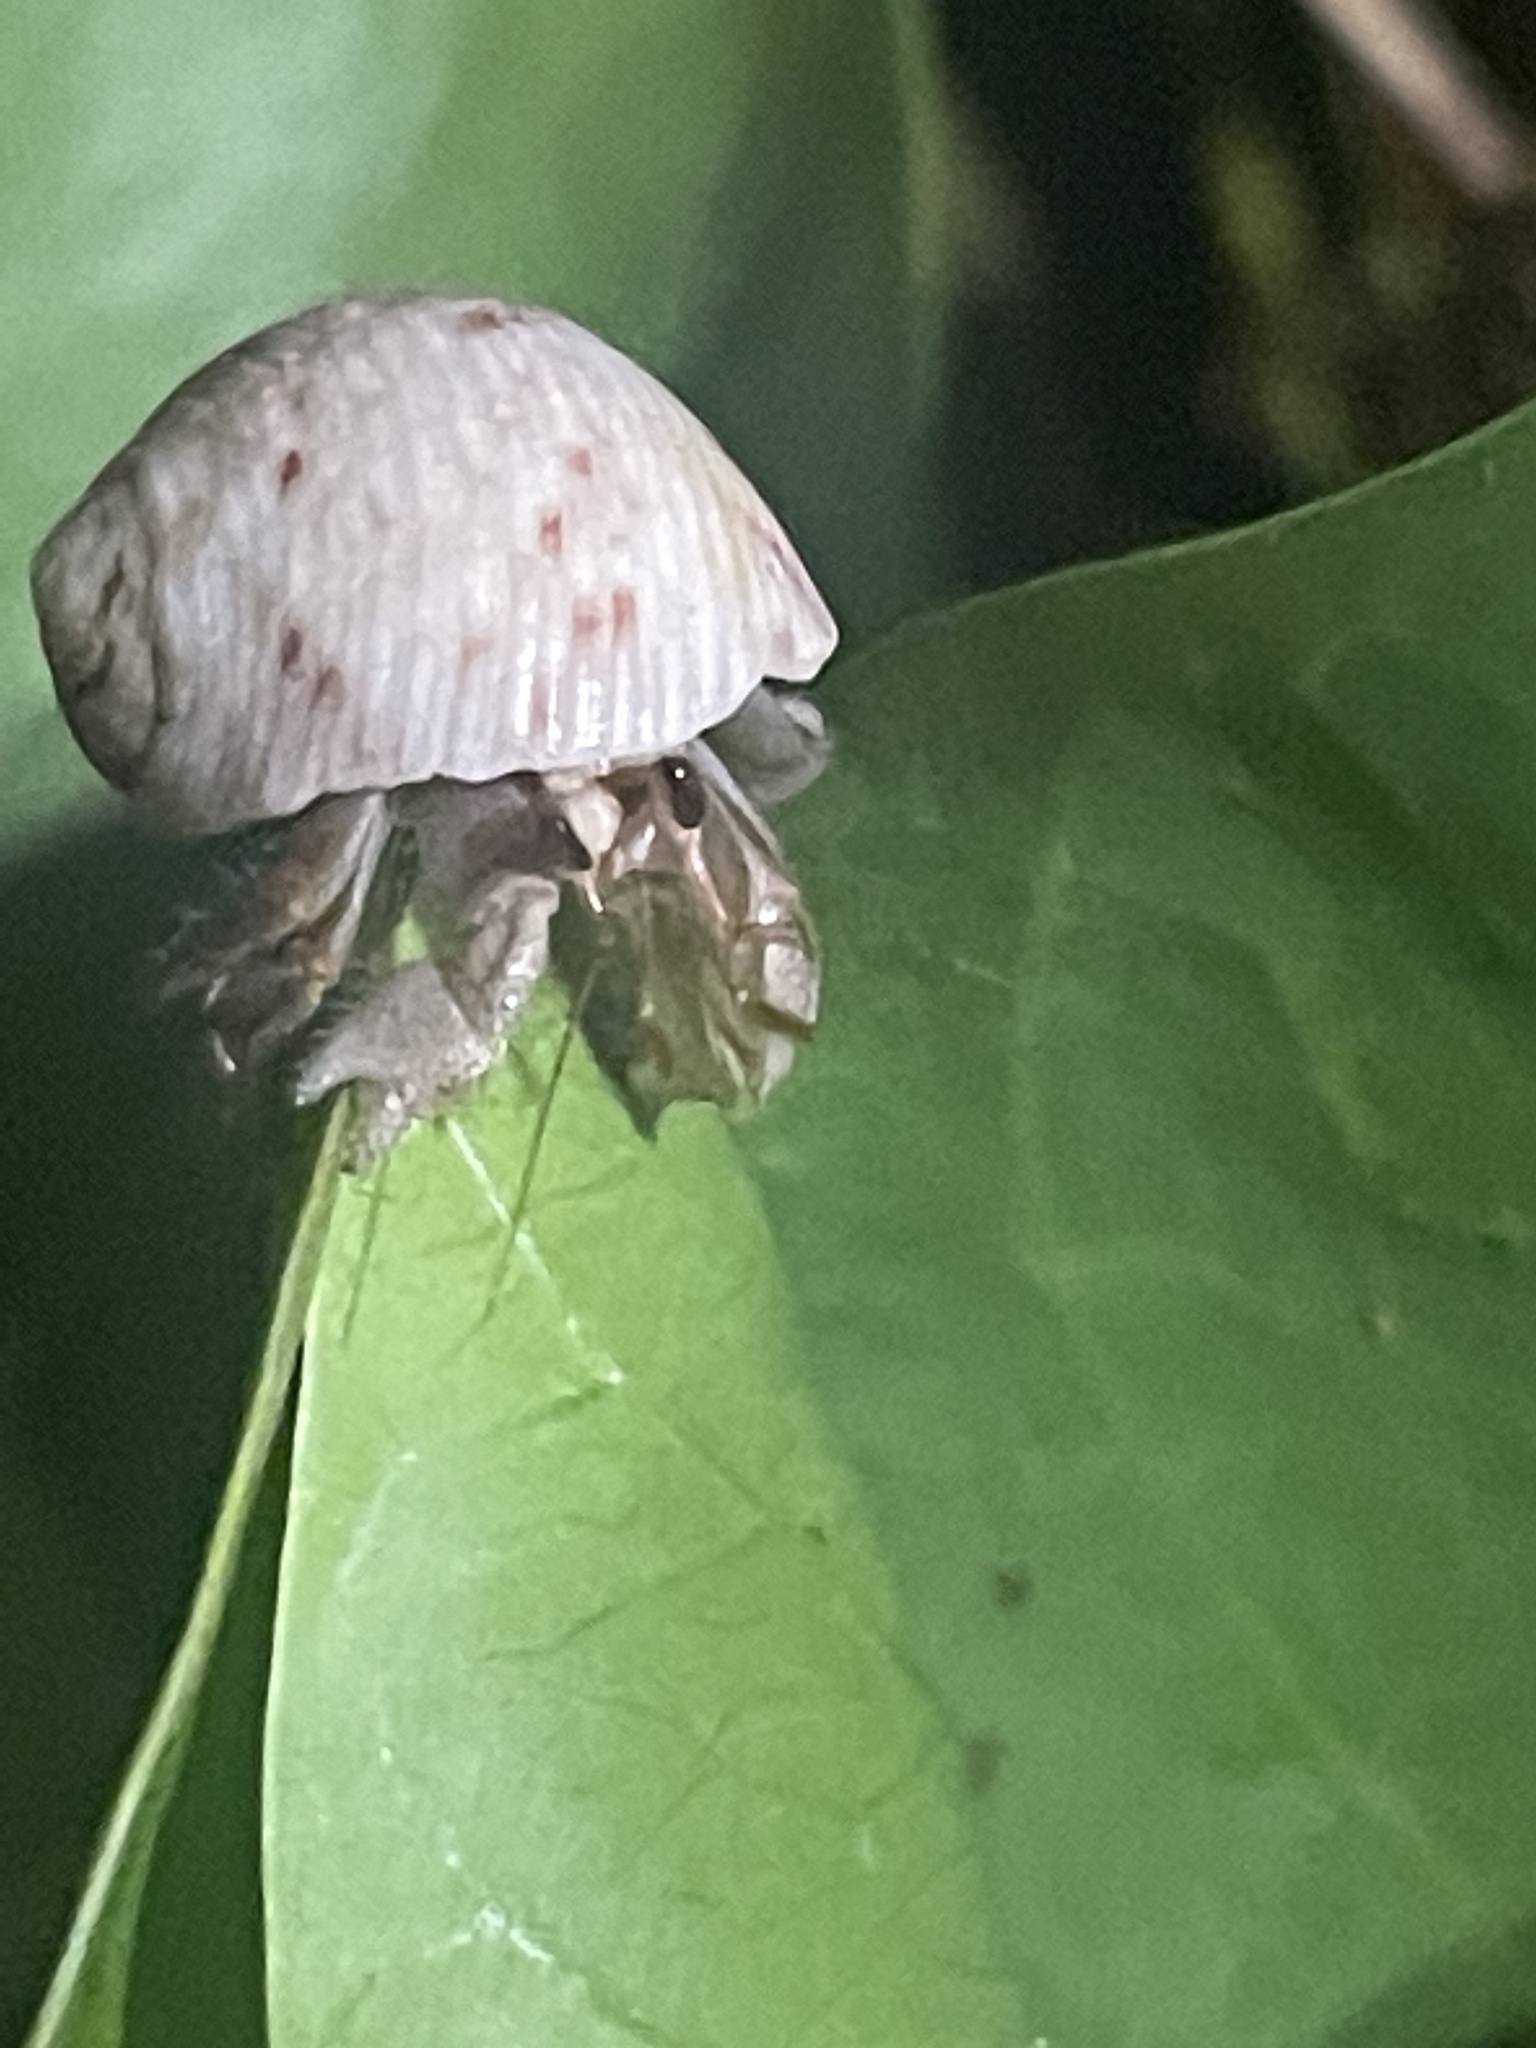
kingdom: Animalia
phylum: Arthropoda
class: Malacostraca
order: Decapoda
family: Coenobitidae
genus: Coenobita
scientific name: Coenobita variabilis
